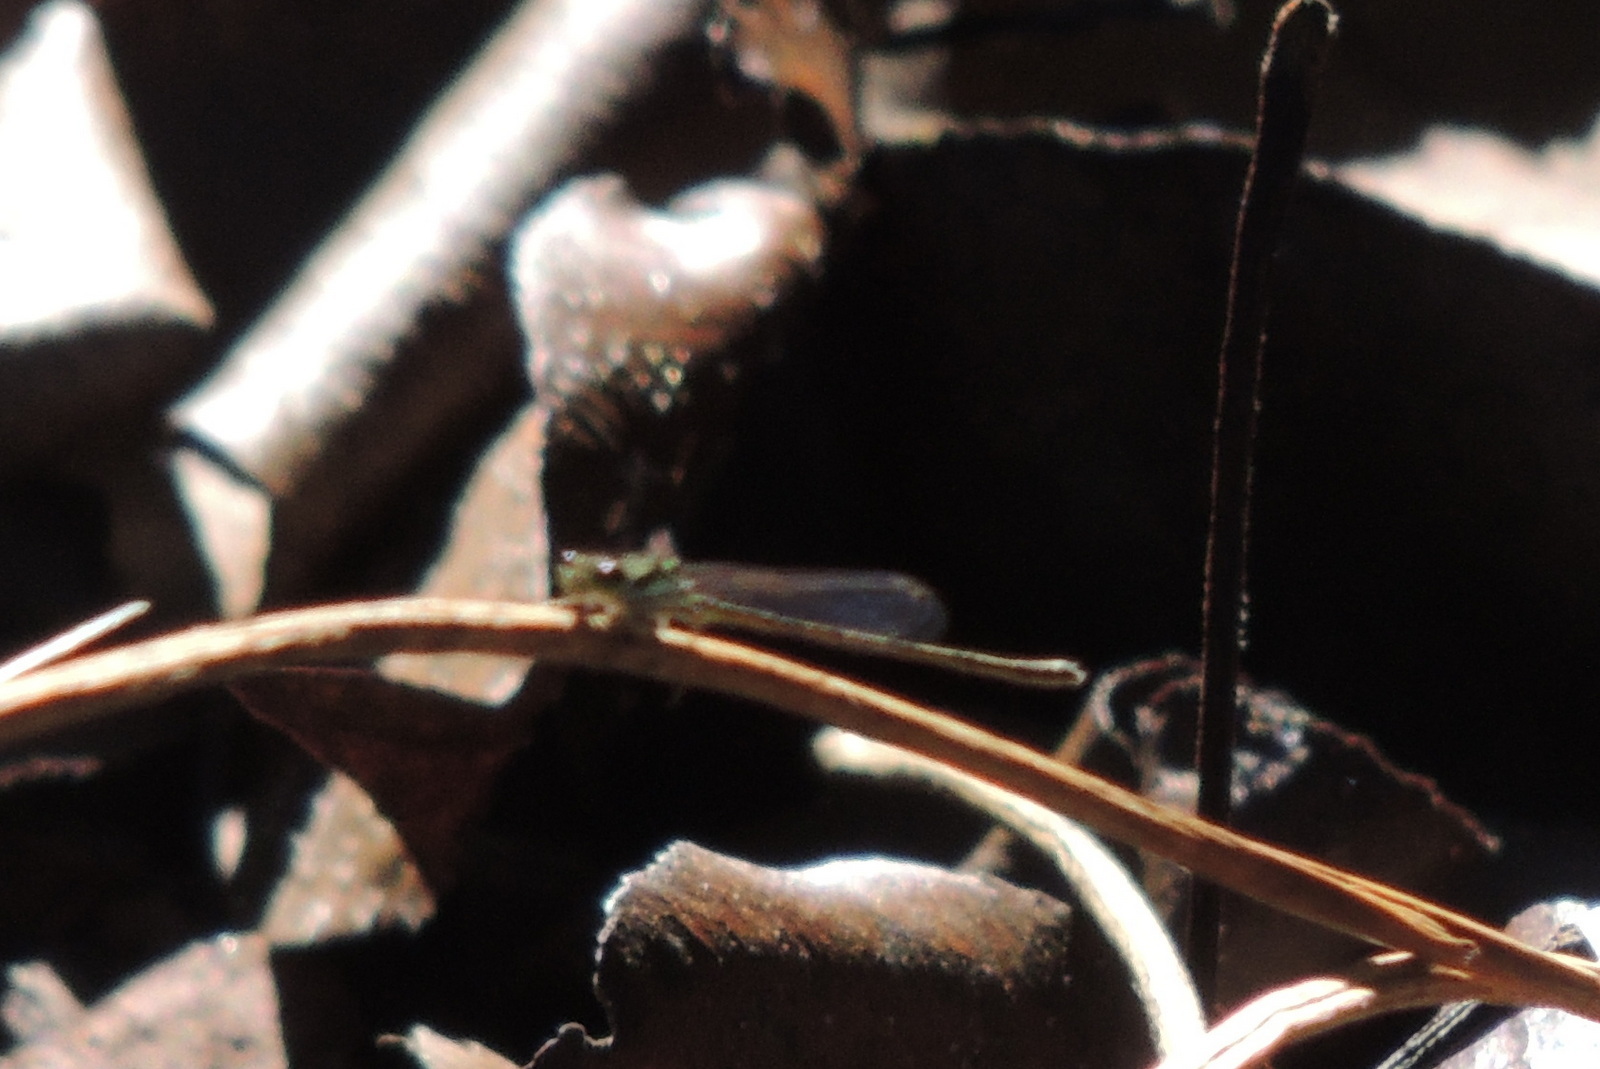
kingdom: Animalia
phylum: Arthropoda
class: Insecta
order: Odonata
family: Coenagrionidae
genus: Ischnura
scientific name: Ischnura posita
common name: Fragile forktail
